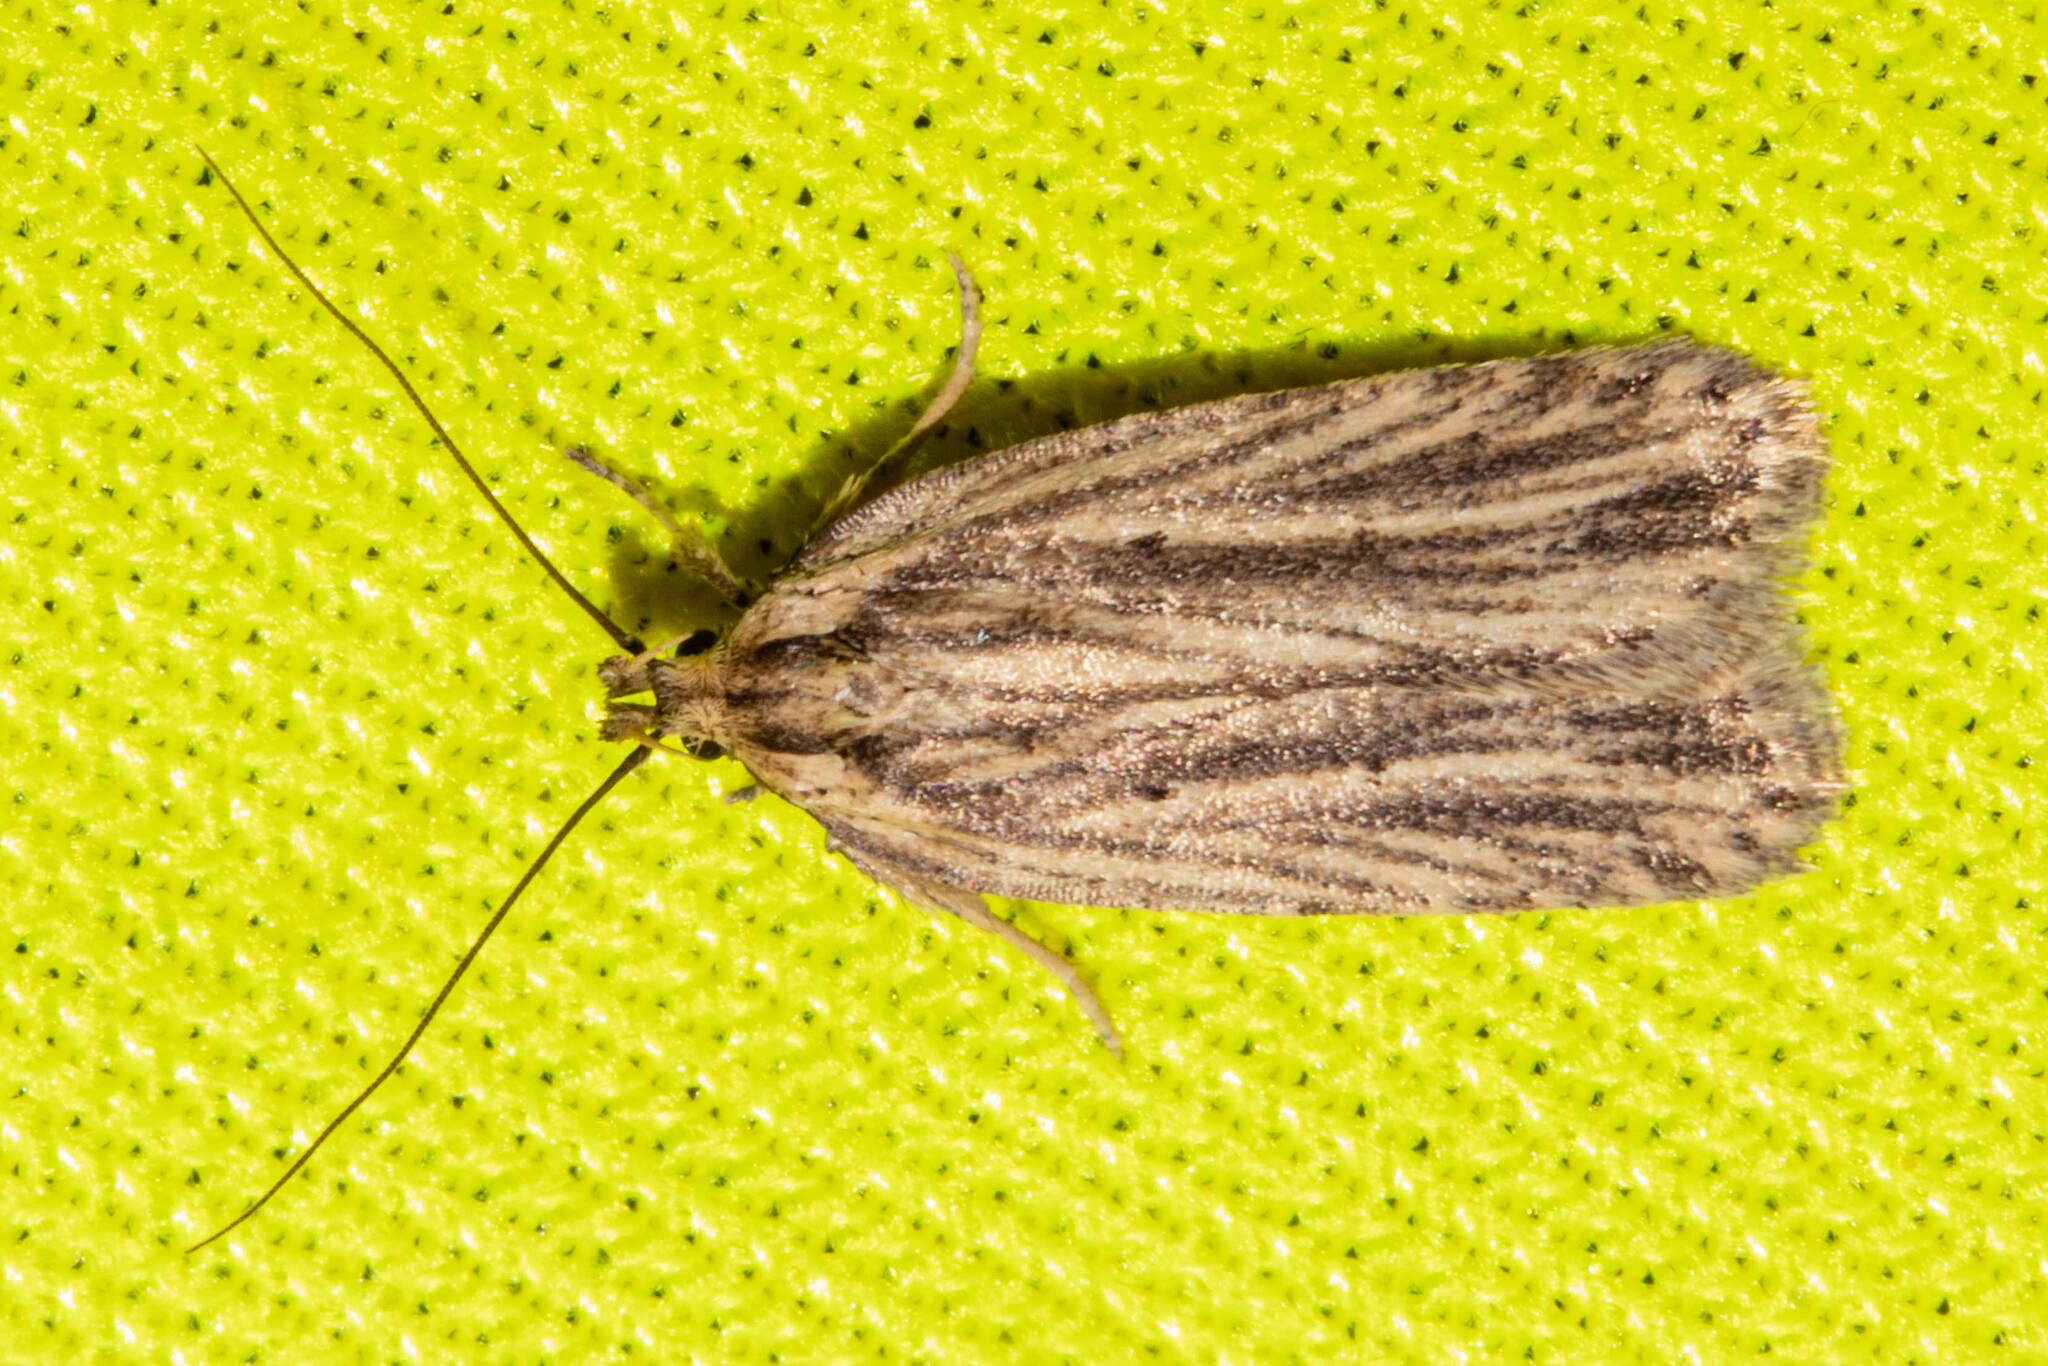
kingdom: Animalia
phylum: Arthropoda
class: Insecta
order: Lepidoptera
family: Depressariidae
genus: Agonopterix
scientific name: Agonopterix
